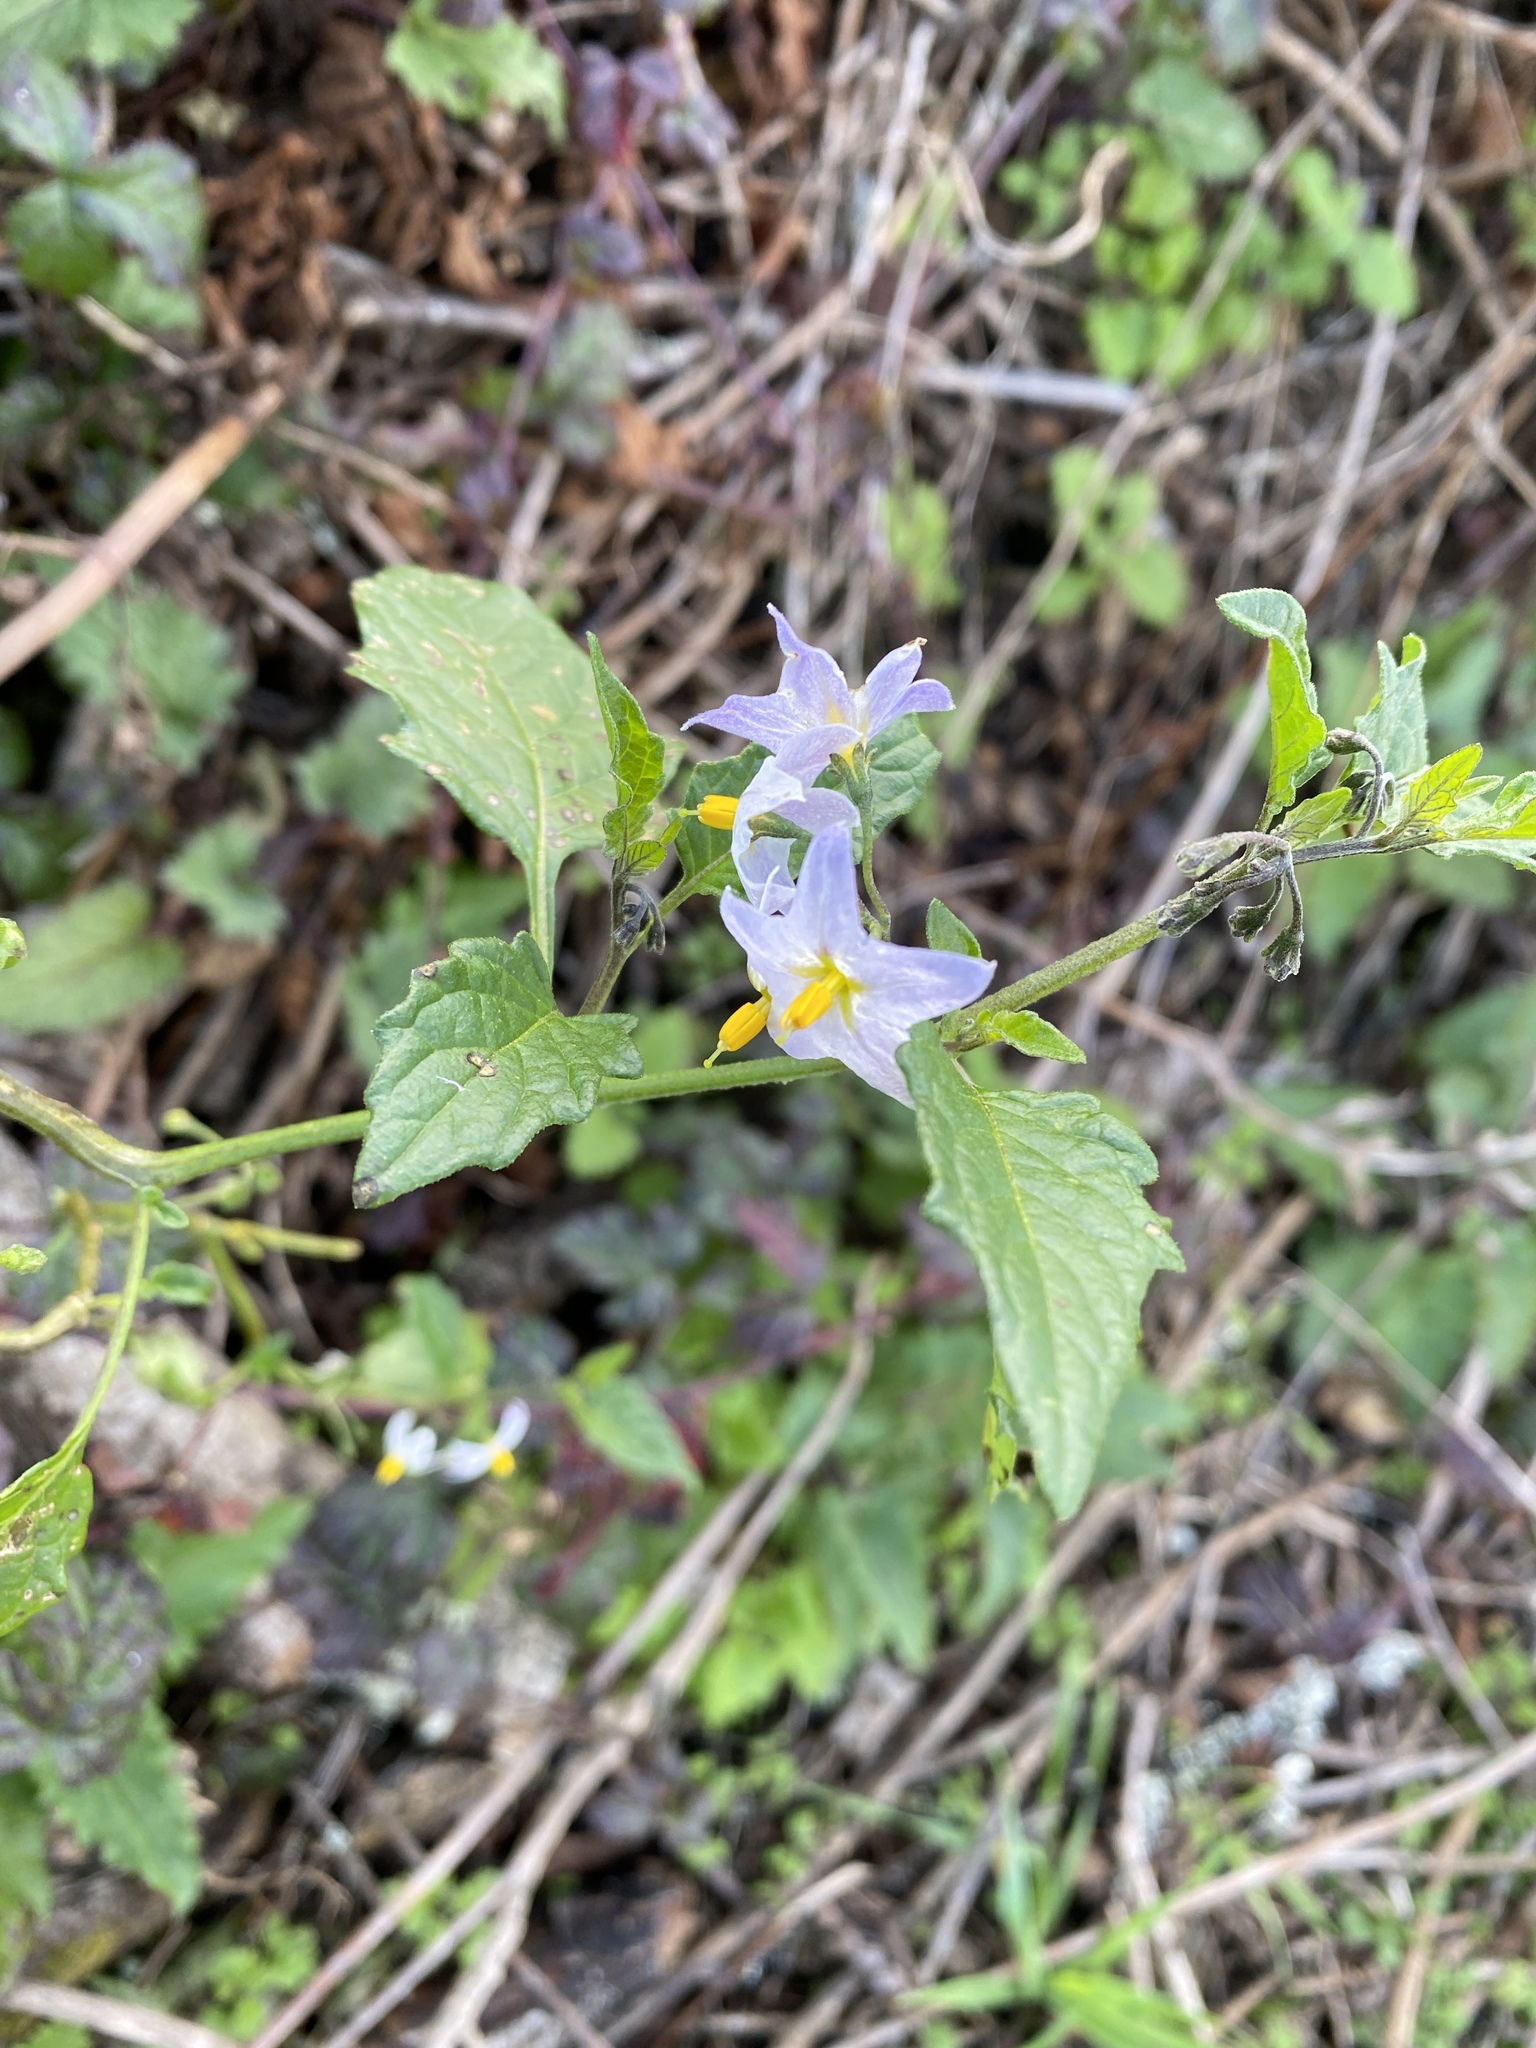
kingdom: Plantae
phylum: Tracheophyta
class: Magnoliopsida
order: Solanales
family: Solanaceae
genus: Solanum
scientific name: Solanum furcatum
